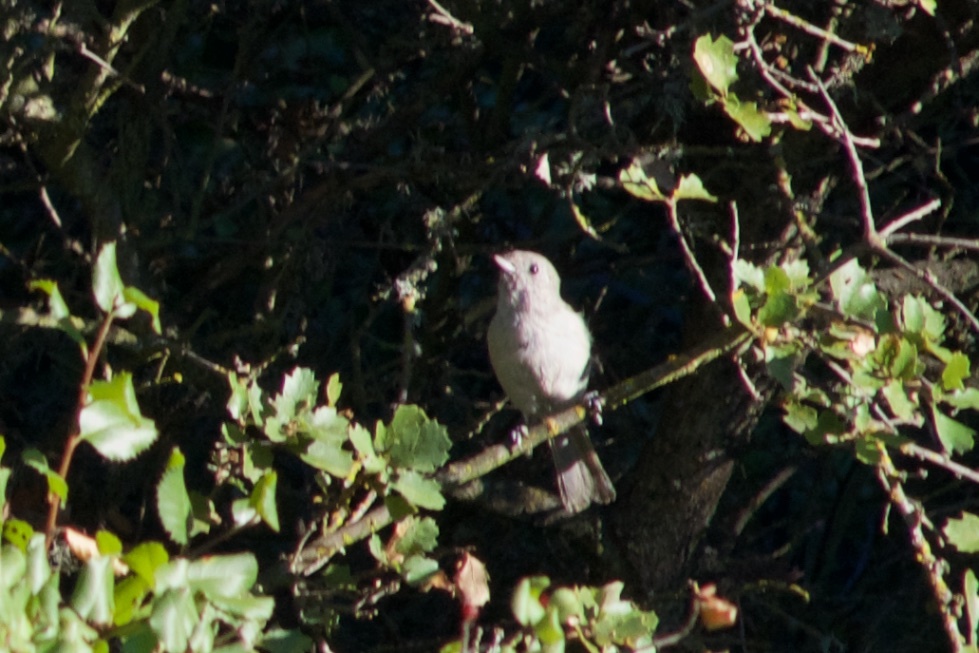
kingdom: Animalia
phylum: Chordata
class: Aves
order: Passeriformes
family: Paridae
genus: Baeolophus
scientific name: Baeolophus inornatus
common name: Oak titmouse
